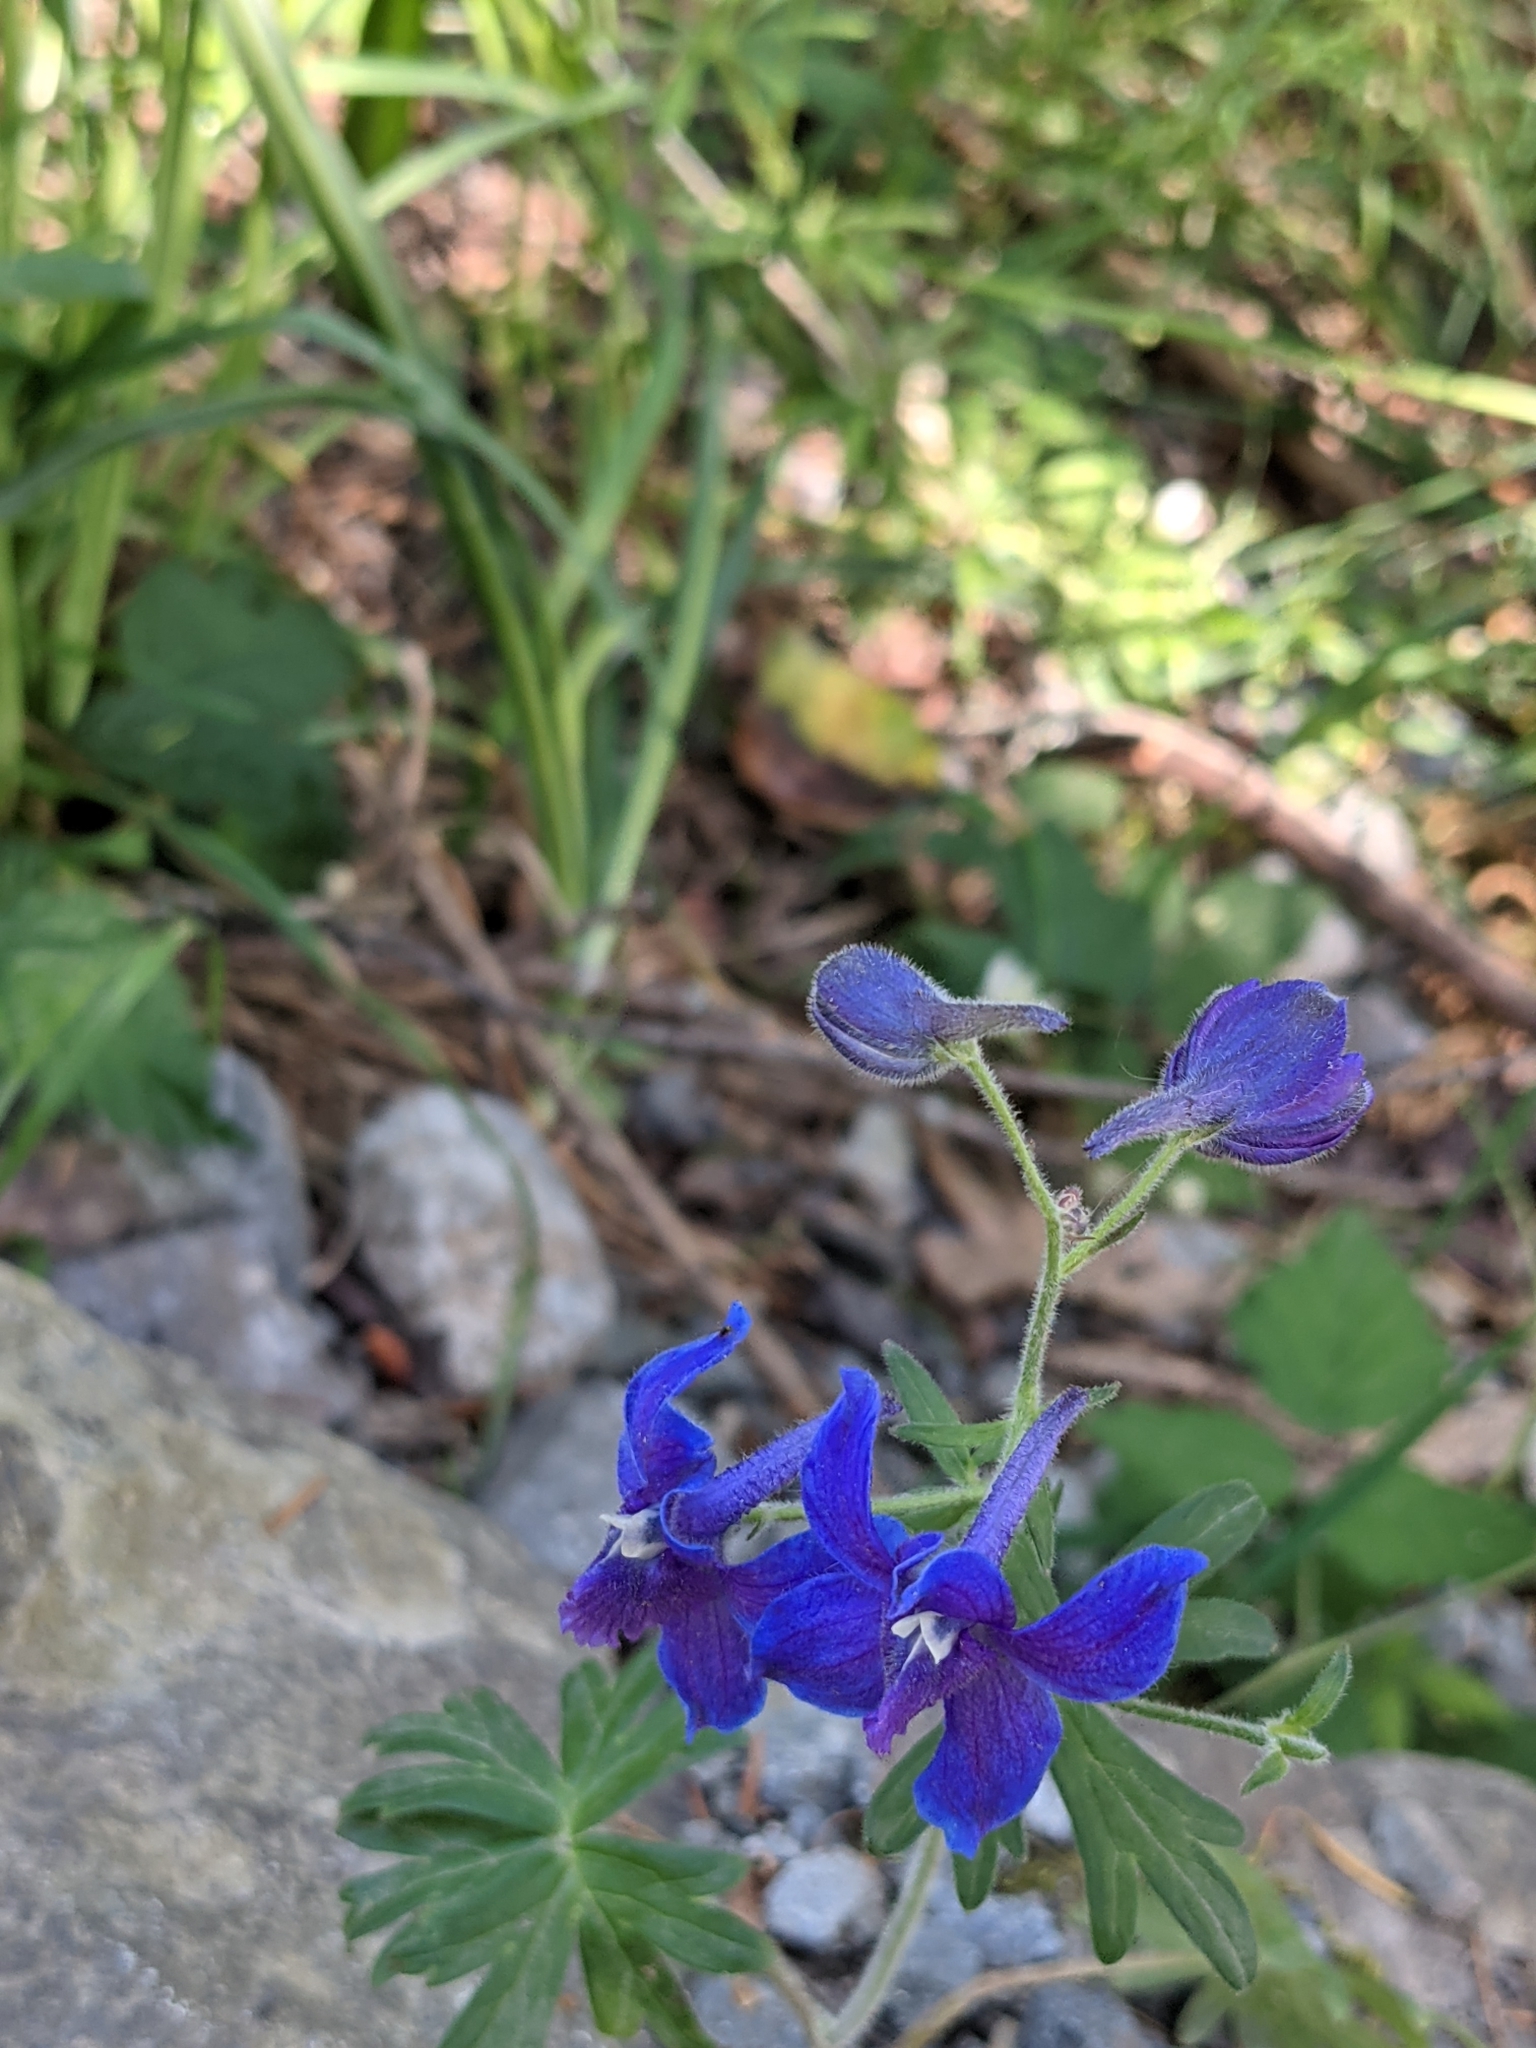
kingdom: Plantae
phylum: Tracheophyta
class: Magnoliopsida
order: Ranunculales
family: Ranunculaceae
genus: Delphinium
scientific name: Delphinium menziesii
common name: Menzies's larkspur
